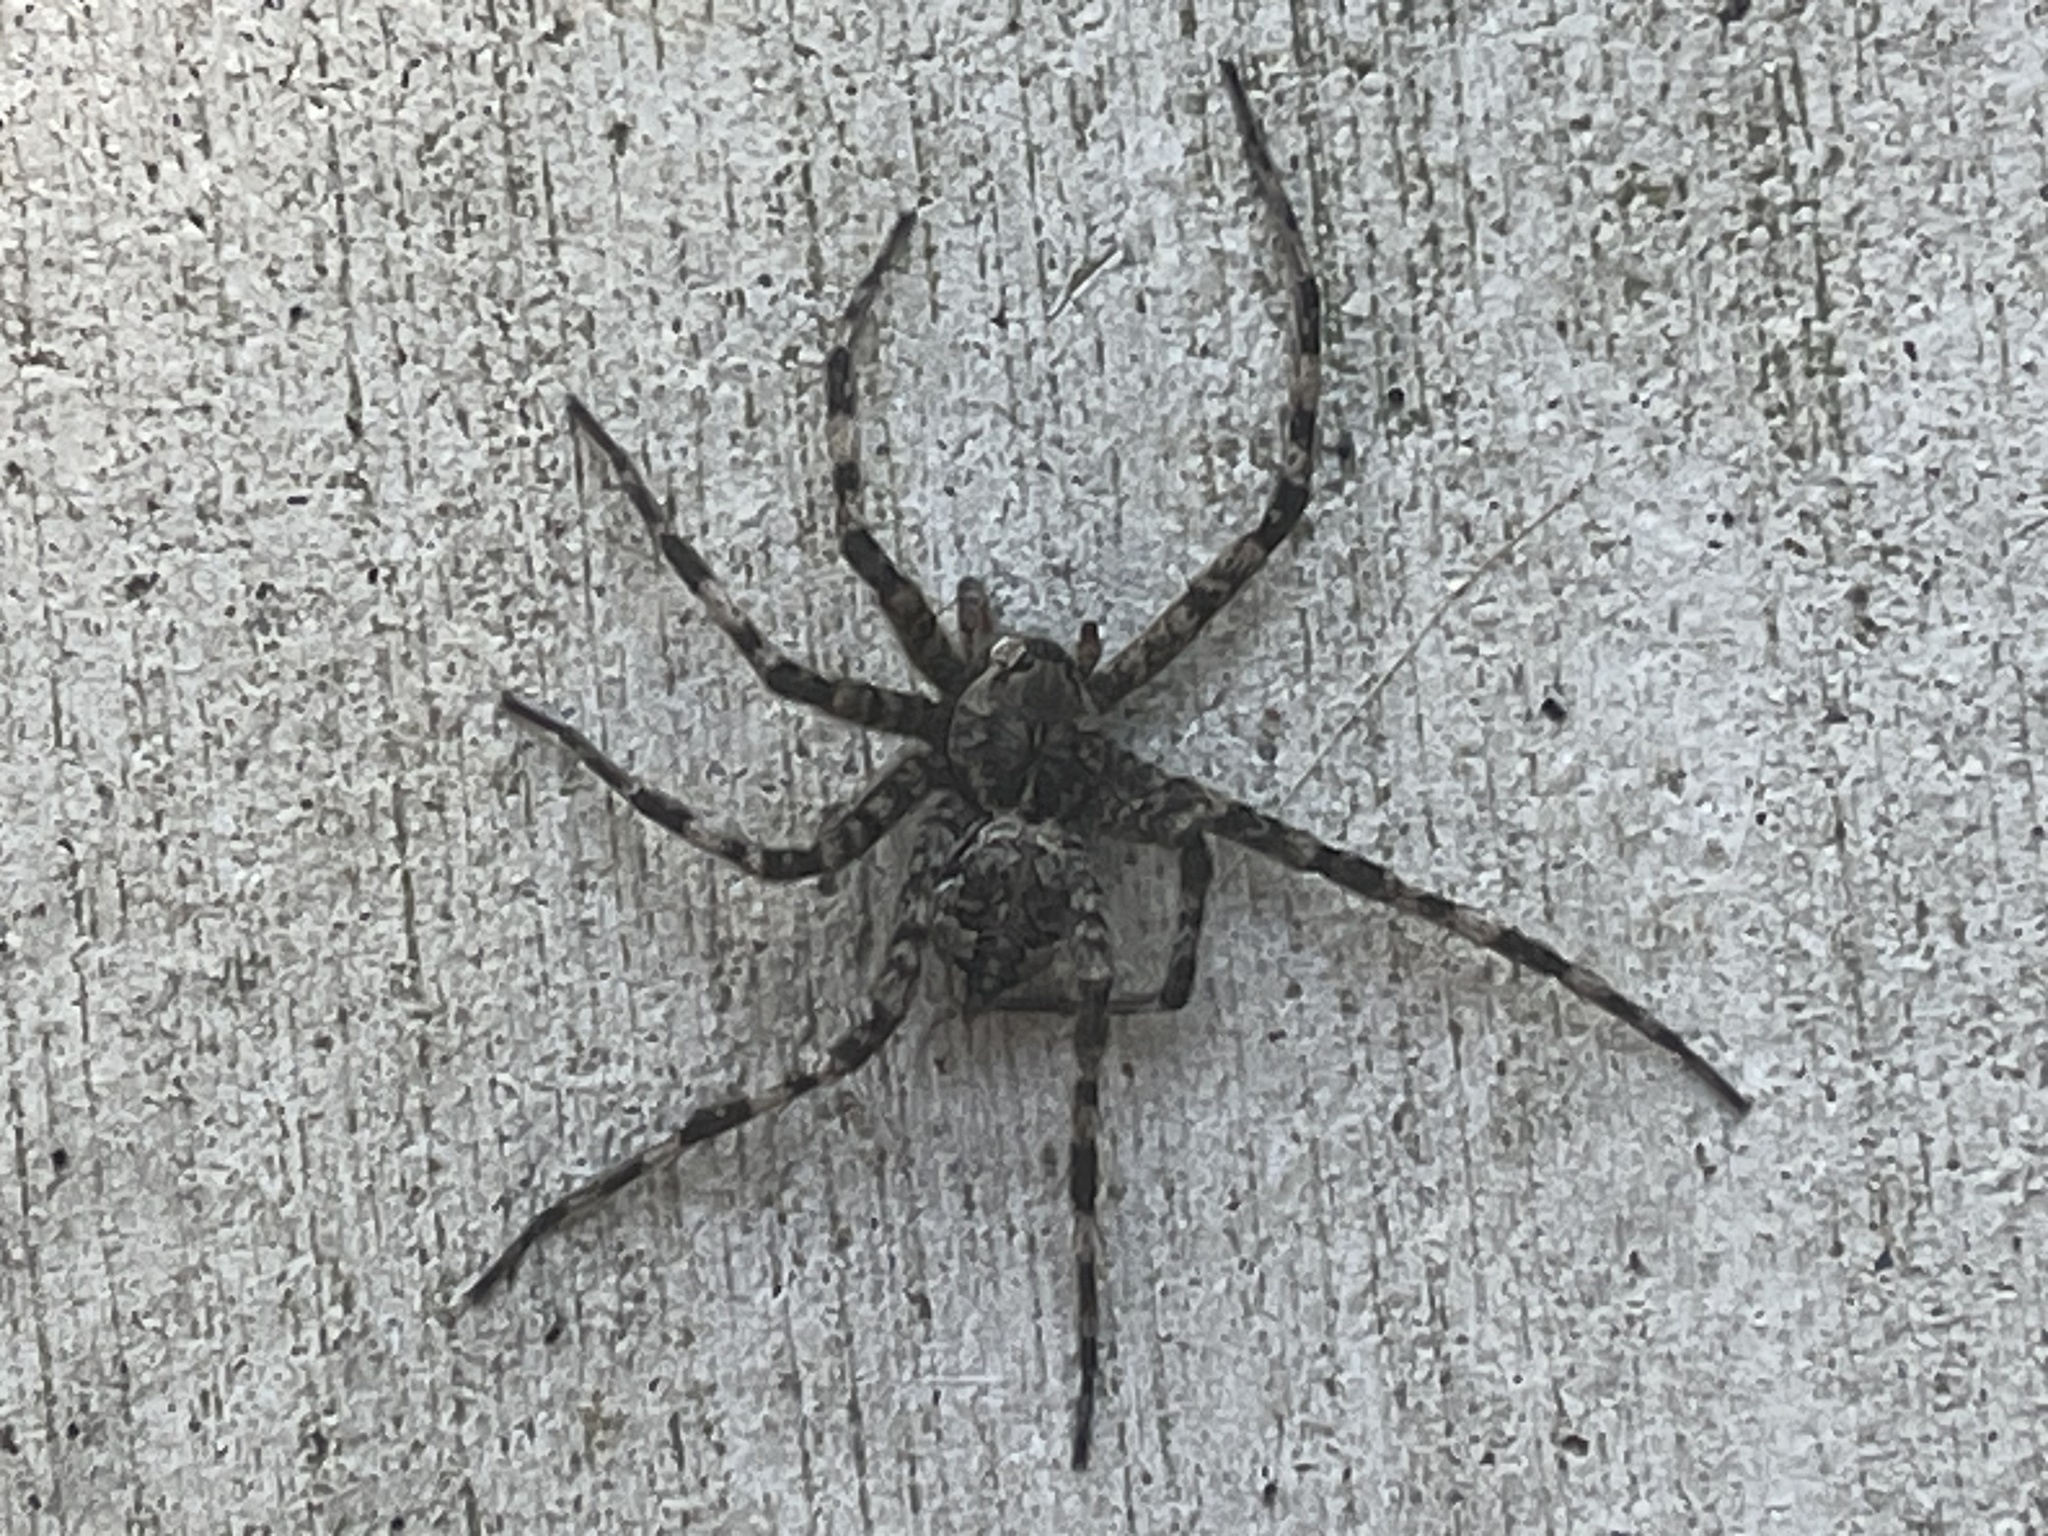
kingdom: Animalia
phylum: Arthropoda
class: Arachnida
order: Araneae
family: Pisauridae
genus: Dolomedes
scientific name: Dolomedes albineus
